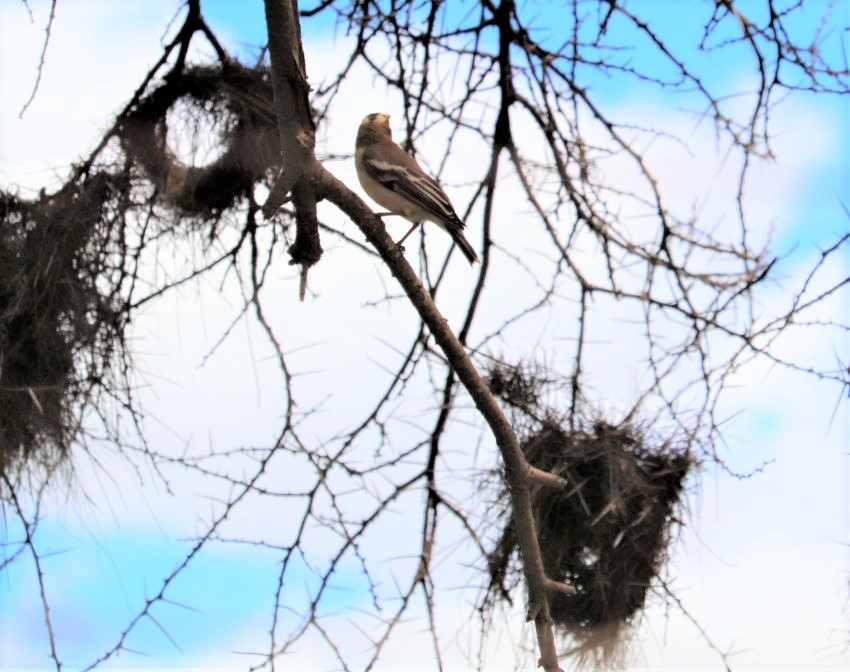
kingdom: Animalia
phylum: Chordata
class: Aves
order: Passeriformes
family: Passeridae
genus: Plocepasser
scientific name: Plocepasser mahali
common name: White-browed sparrow-weaver
